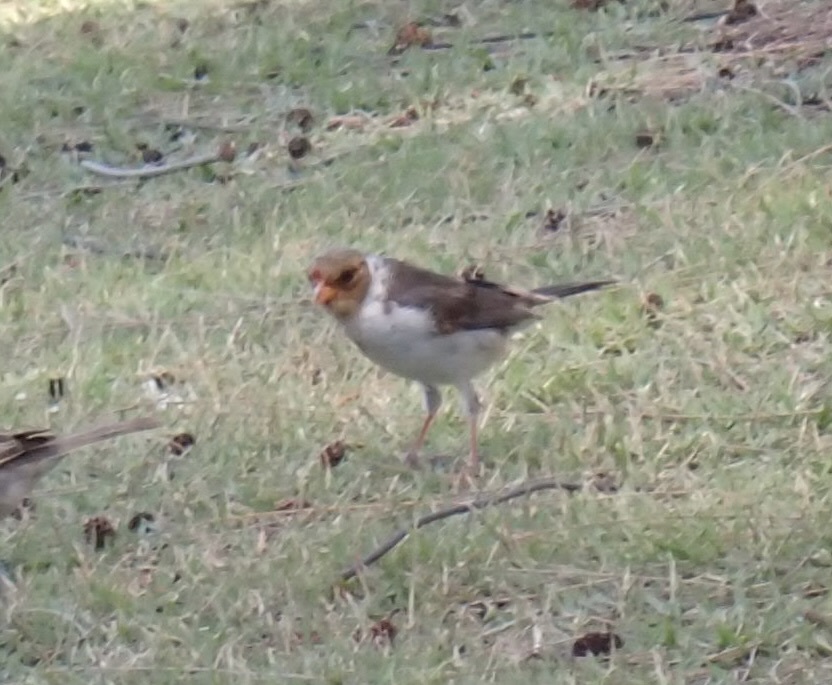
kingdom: Animalia
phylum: Chordata
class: Aves
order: Passeriformes
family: Thraupidae
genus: Paroaria
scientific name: Paroaria capitata
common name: Yellow-billed cardinal
